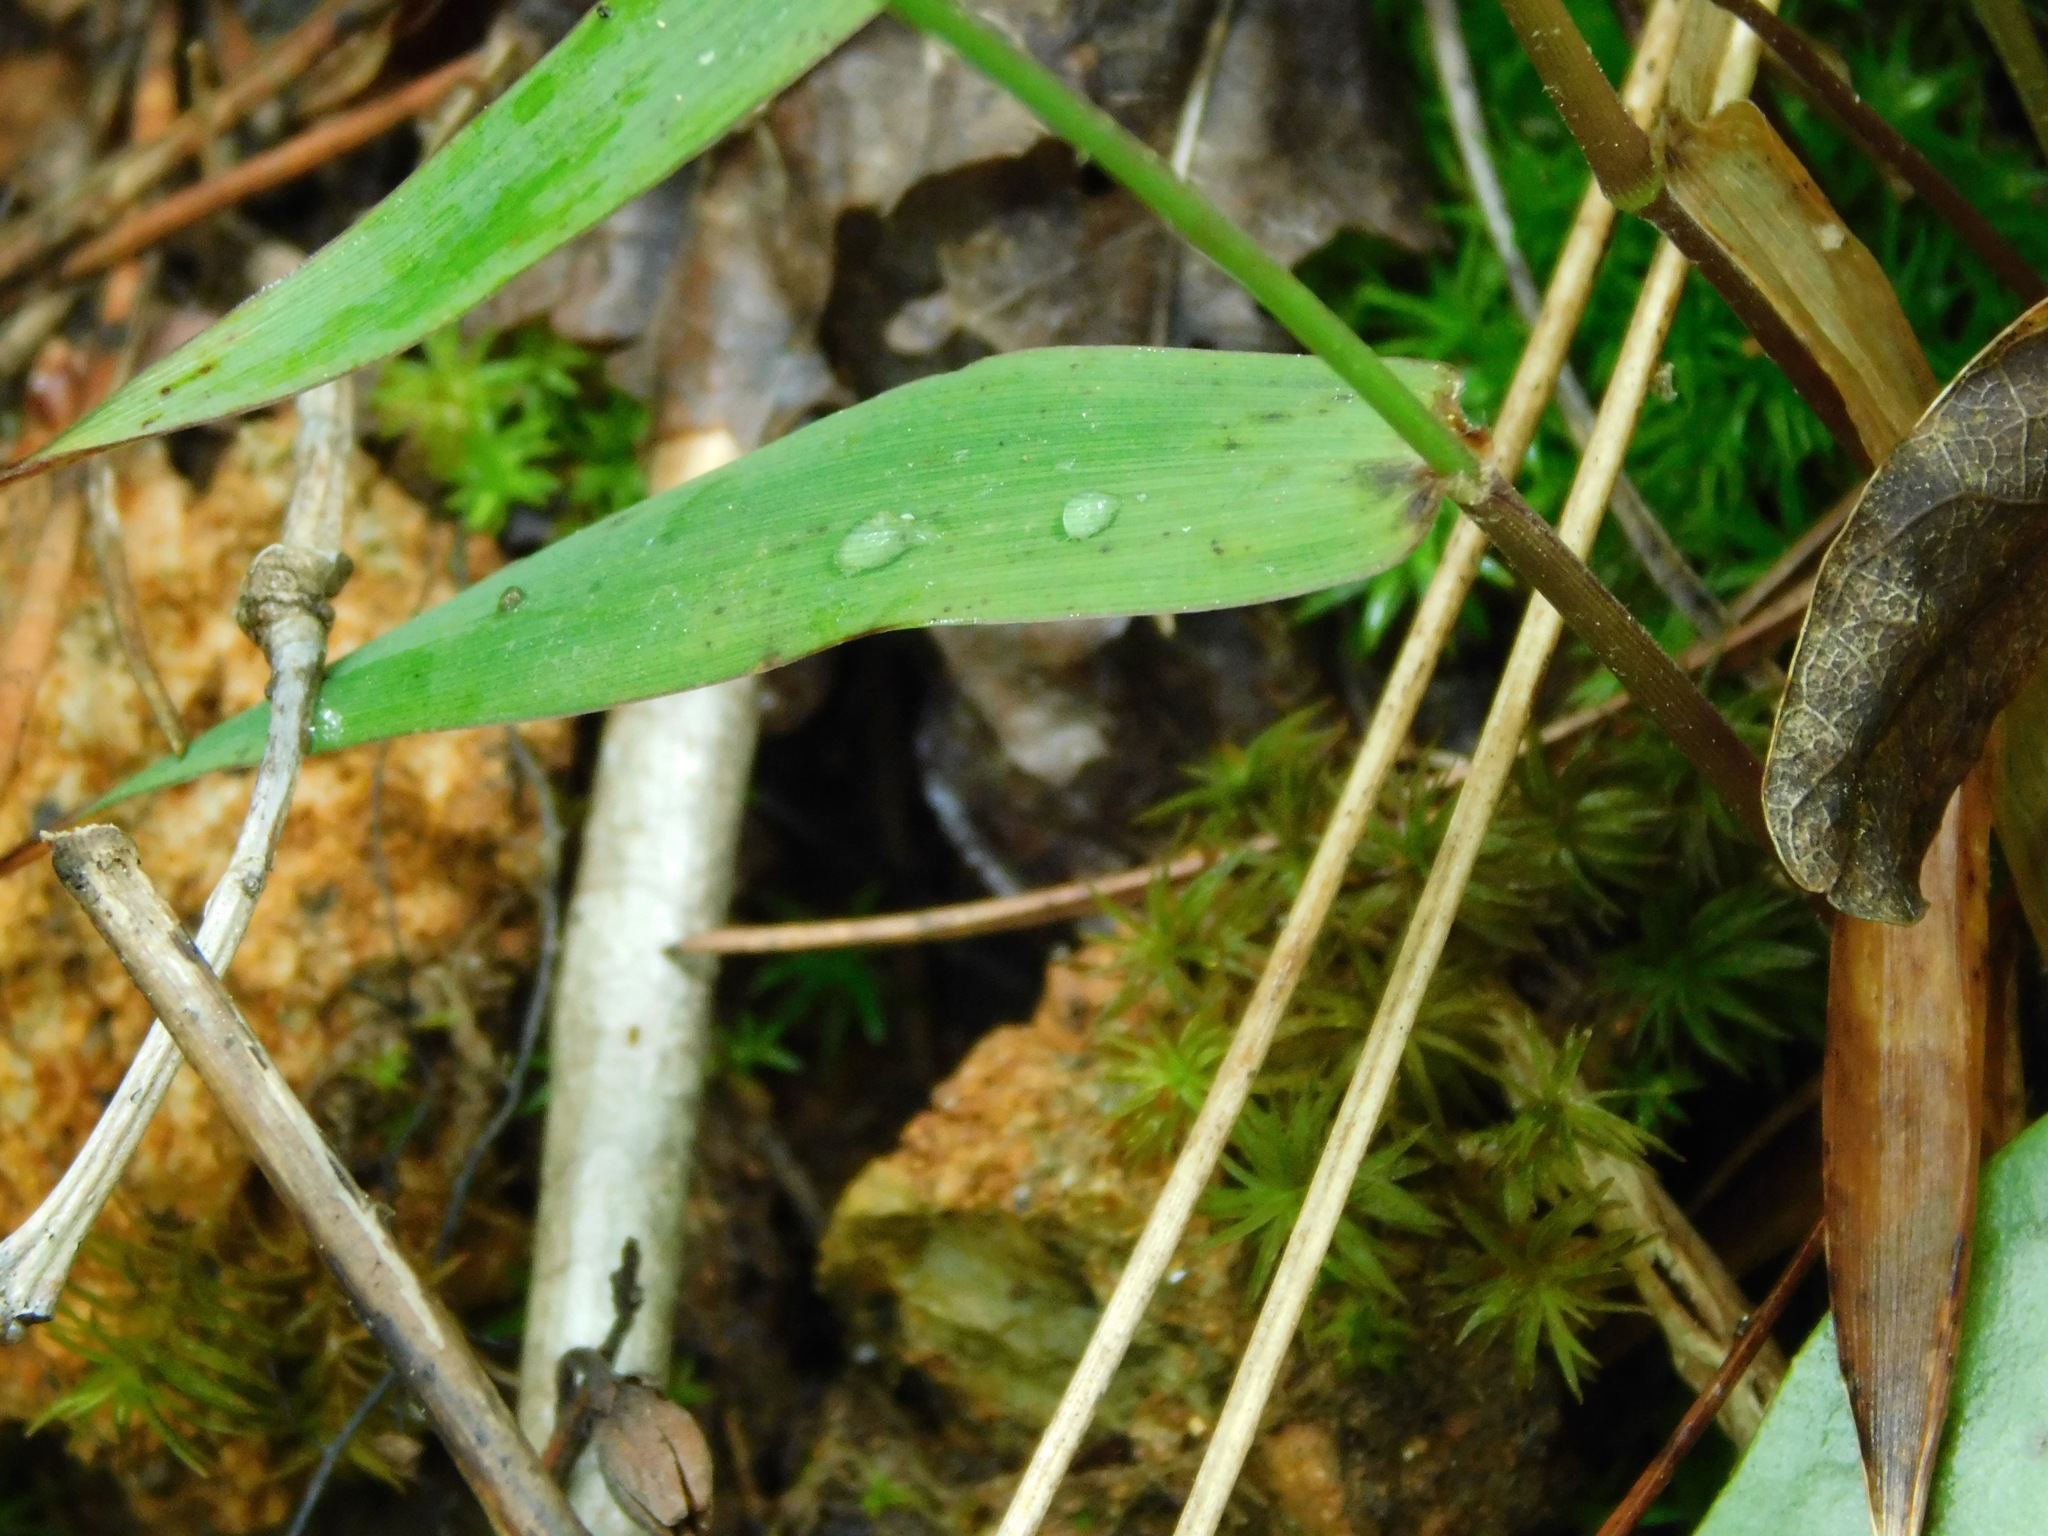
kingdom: Plantae
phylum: Tracheophyta
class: Liliopsida
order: Poales
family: Poaceae
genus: Dichanthelium
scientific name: Dichanthelium dichotomum
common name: Cypress panicgrass
